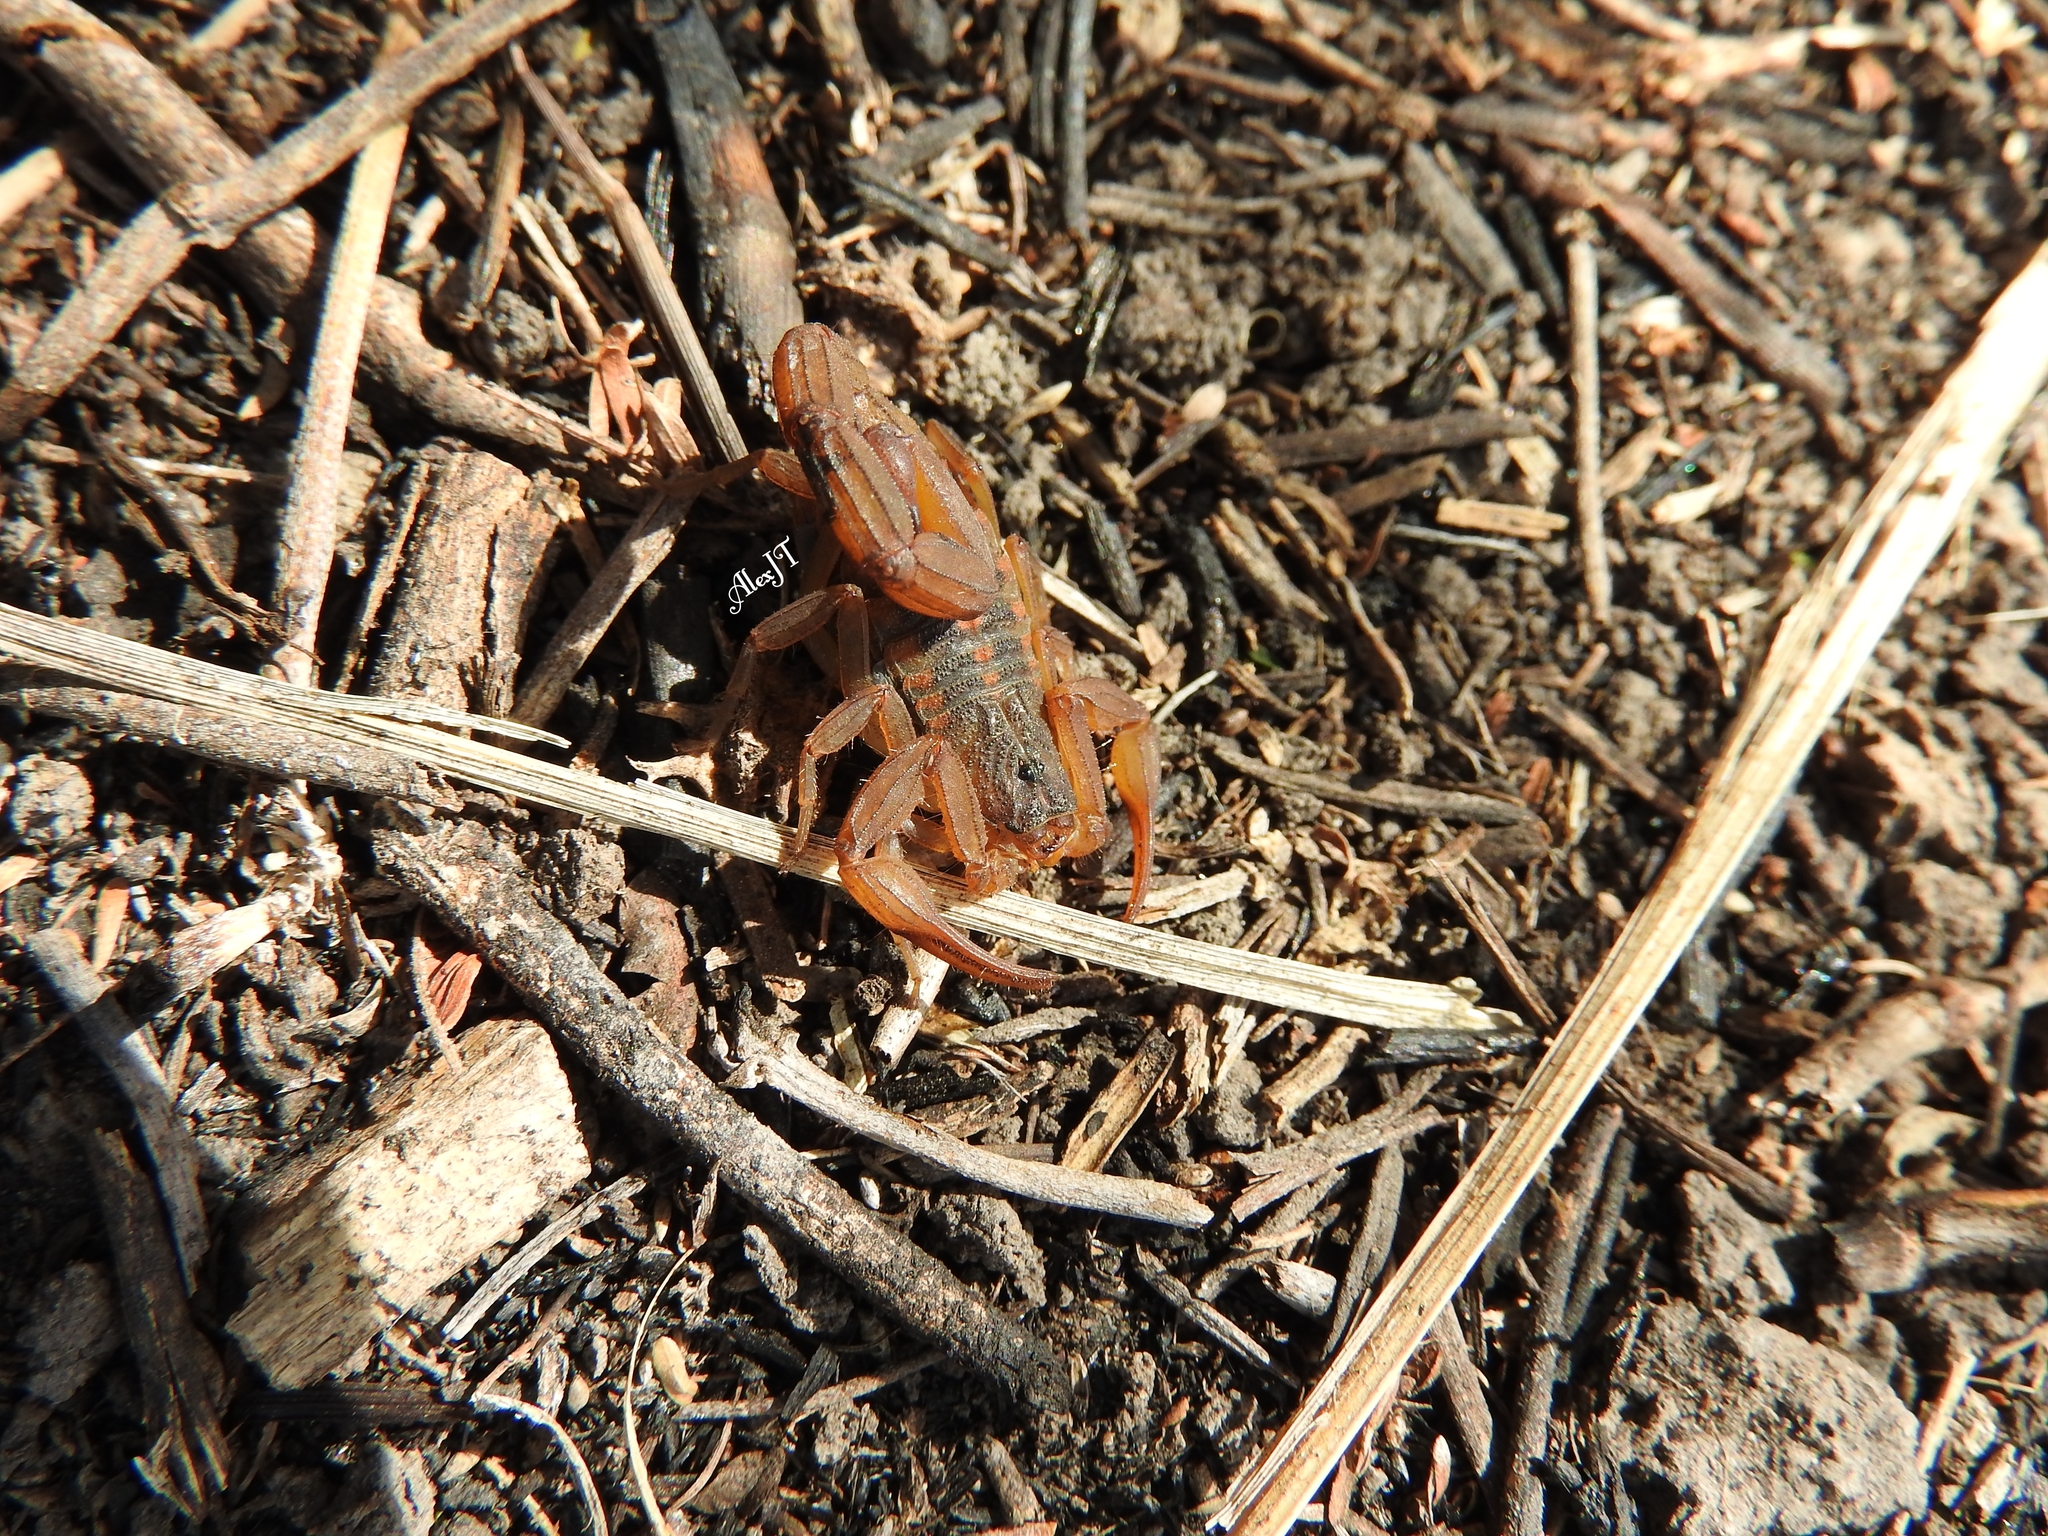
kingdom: Animalia
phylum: Arthropoda
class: Arachnida
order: Scorpiones
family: Buthidae
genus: Centruroides
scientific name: Centruroides ornatus
